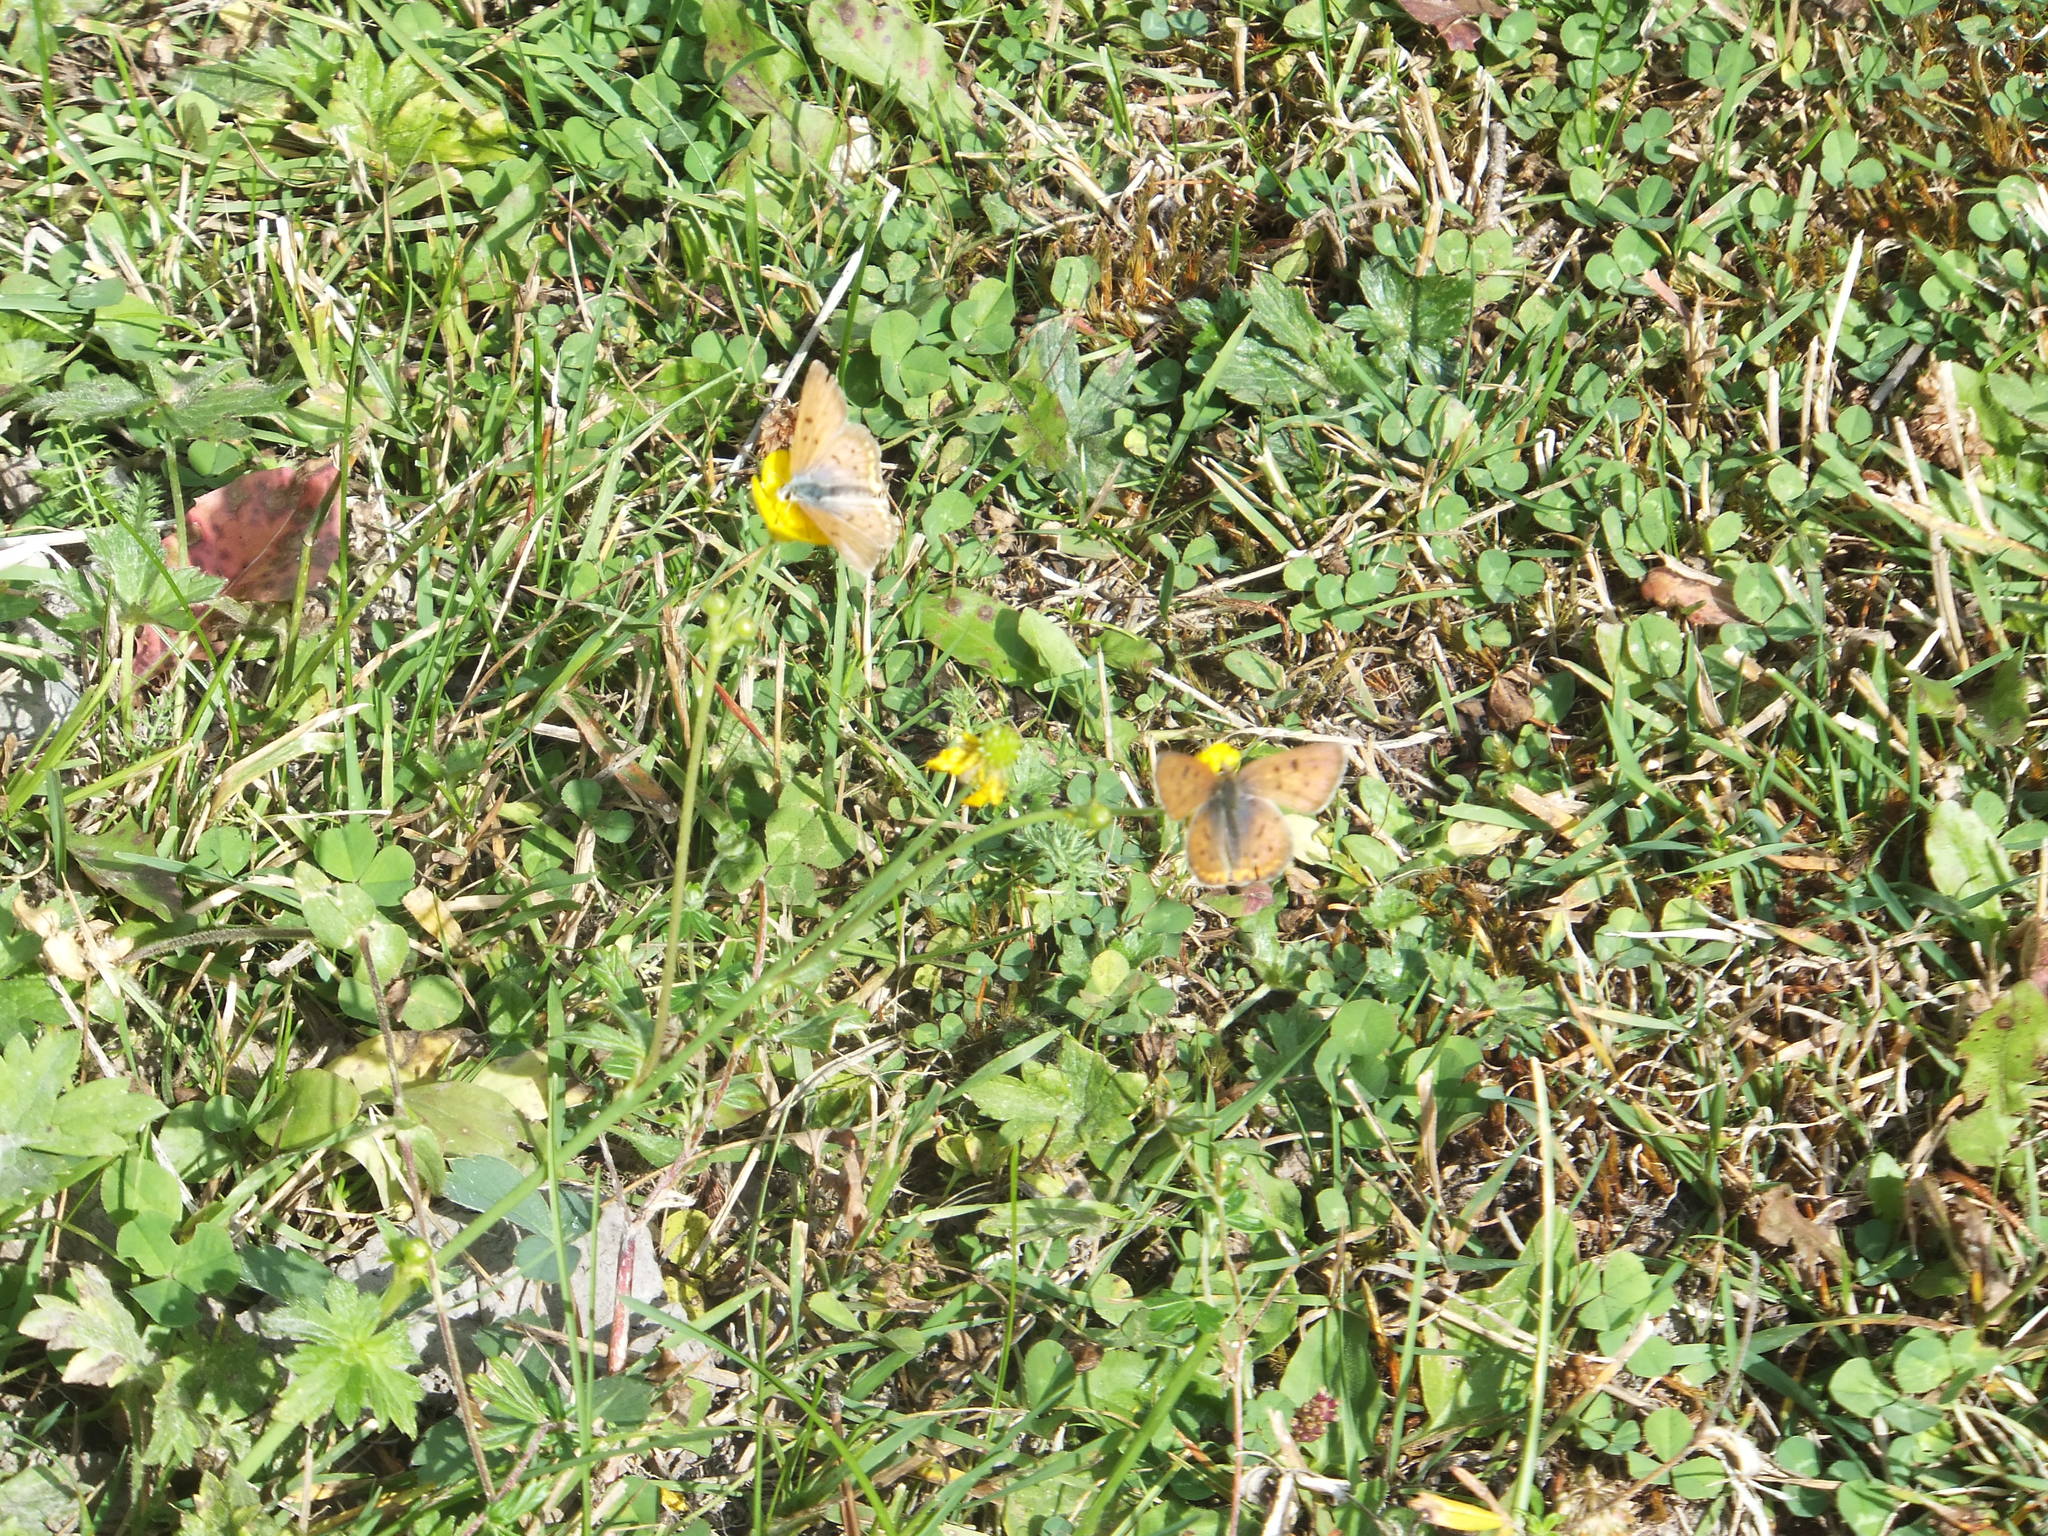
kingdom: Animalia
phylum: Arthropoda
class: Insecta
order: Lepidoptera
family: Lycaenidae
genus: Tharsalea
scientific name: Tharsalea helloides
